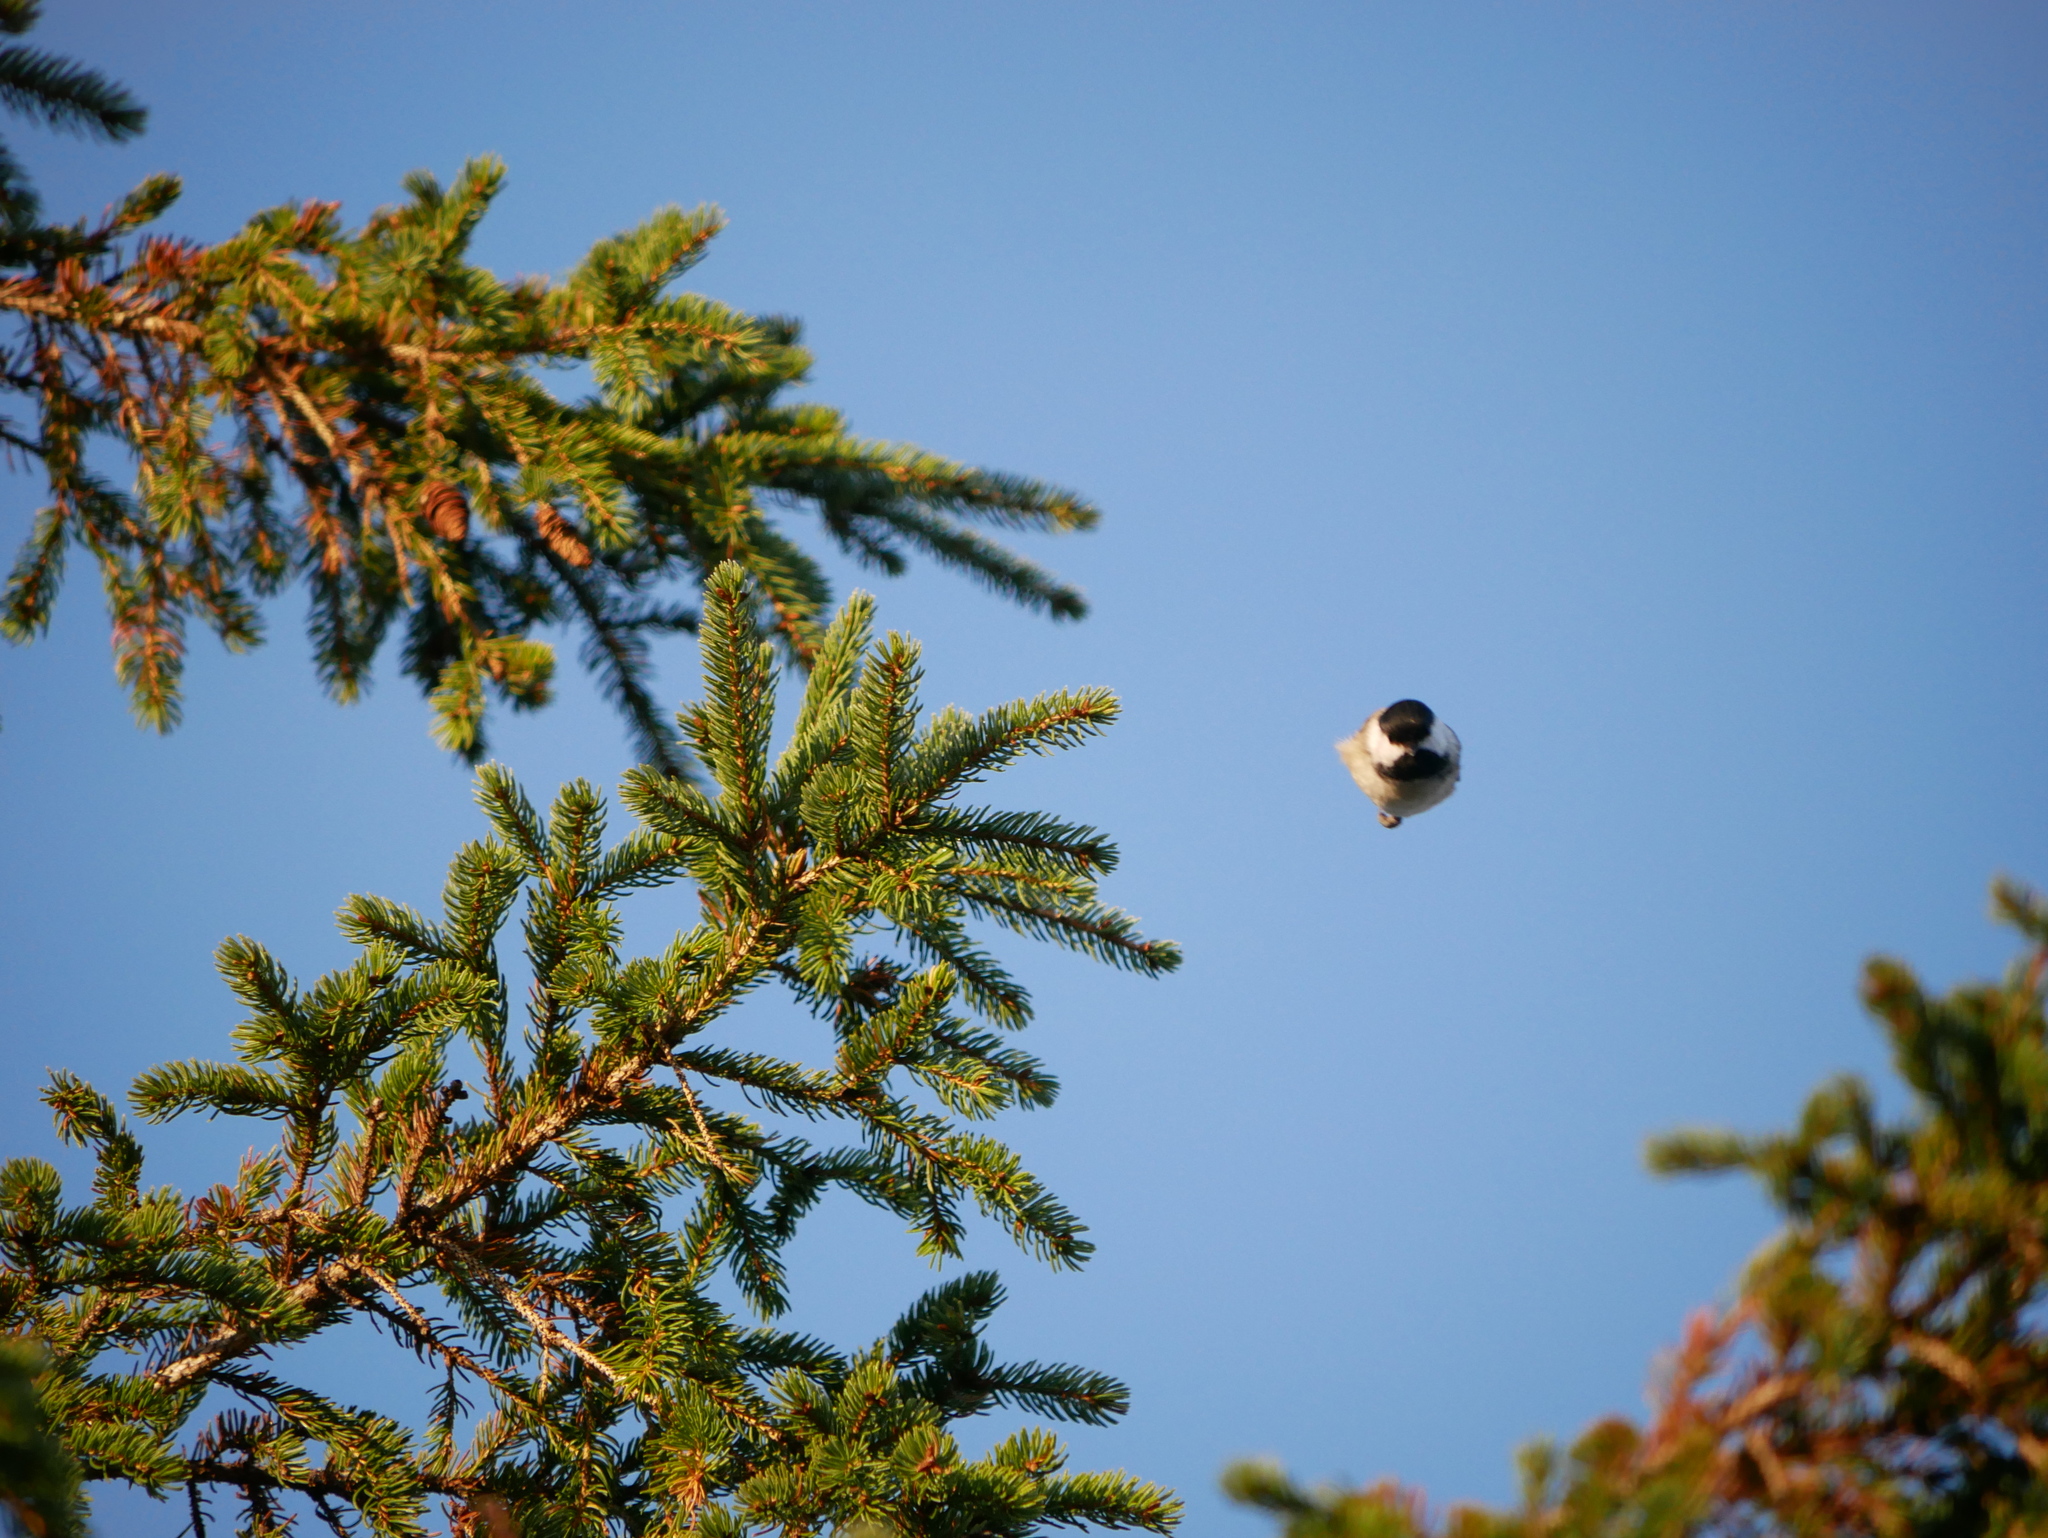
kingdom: Animalia
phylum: Chordata
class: Aves
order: Passeriformes
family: Paridae
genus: Poecile
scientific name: Poecile atricapillus
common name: Black-capped chickadee
